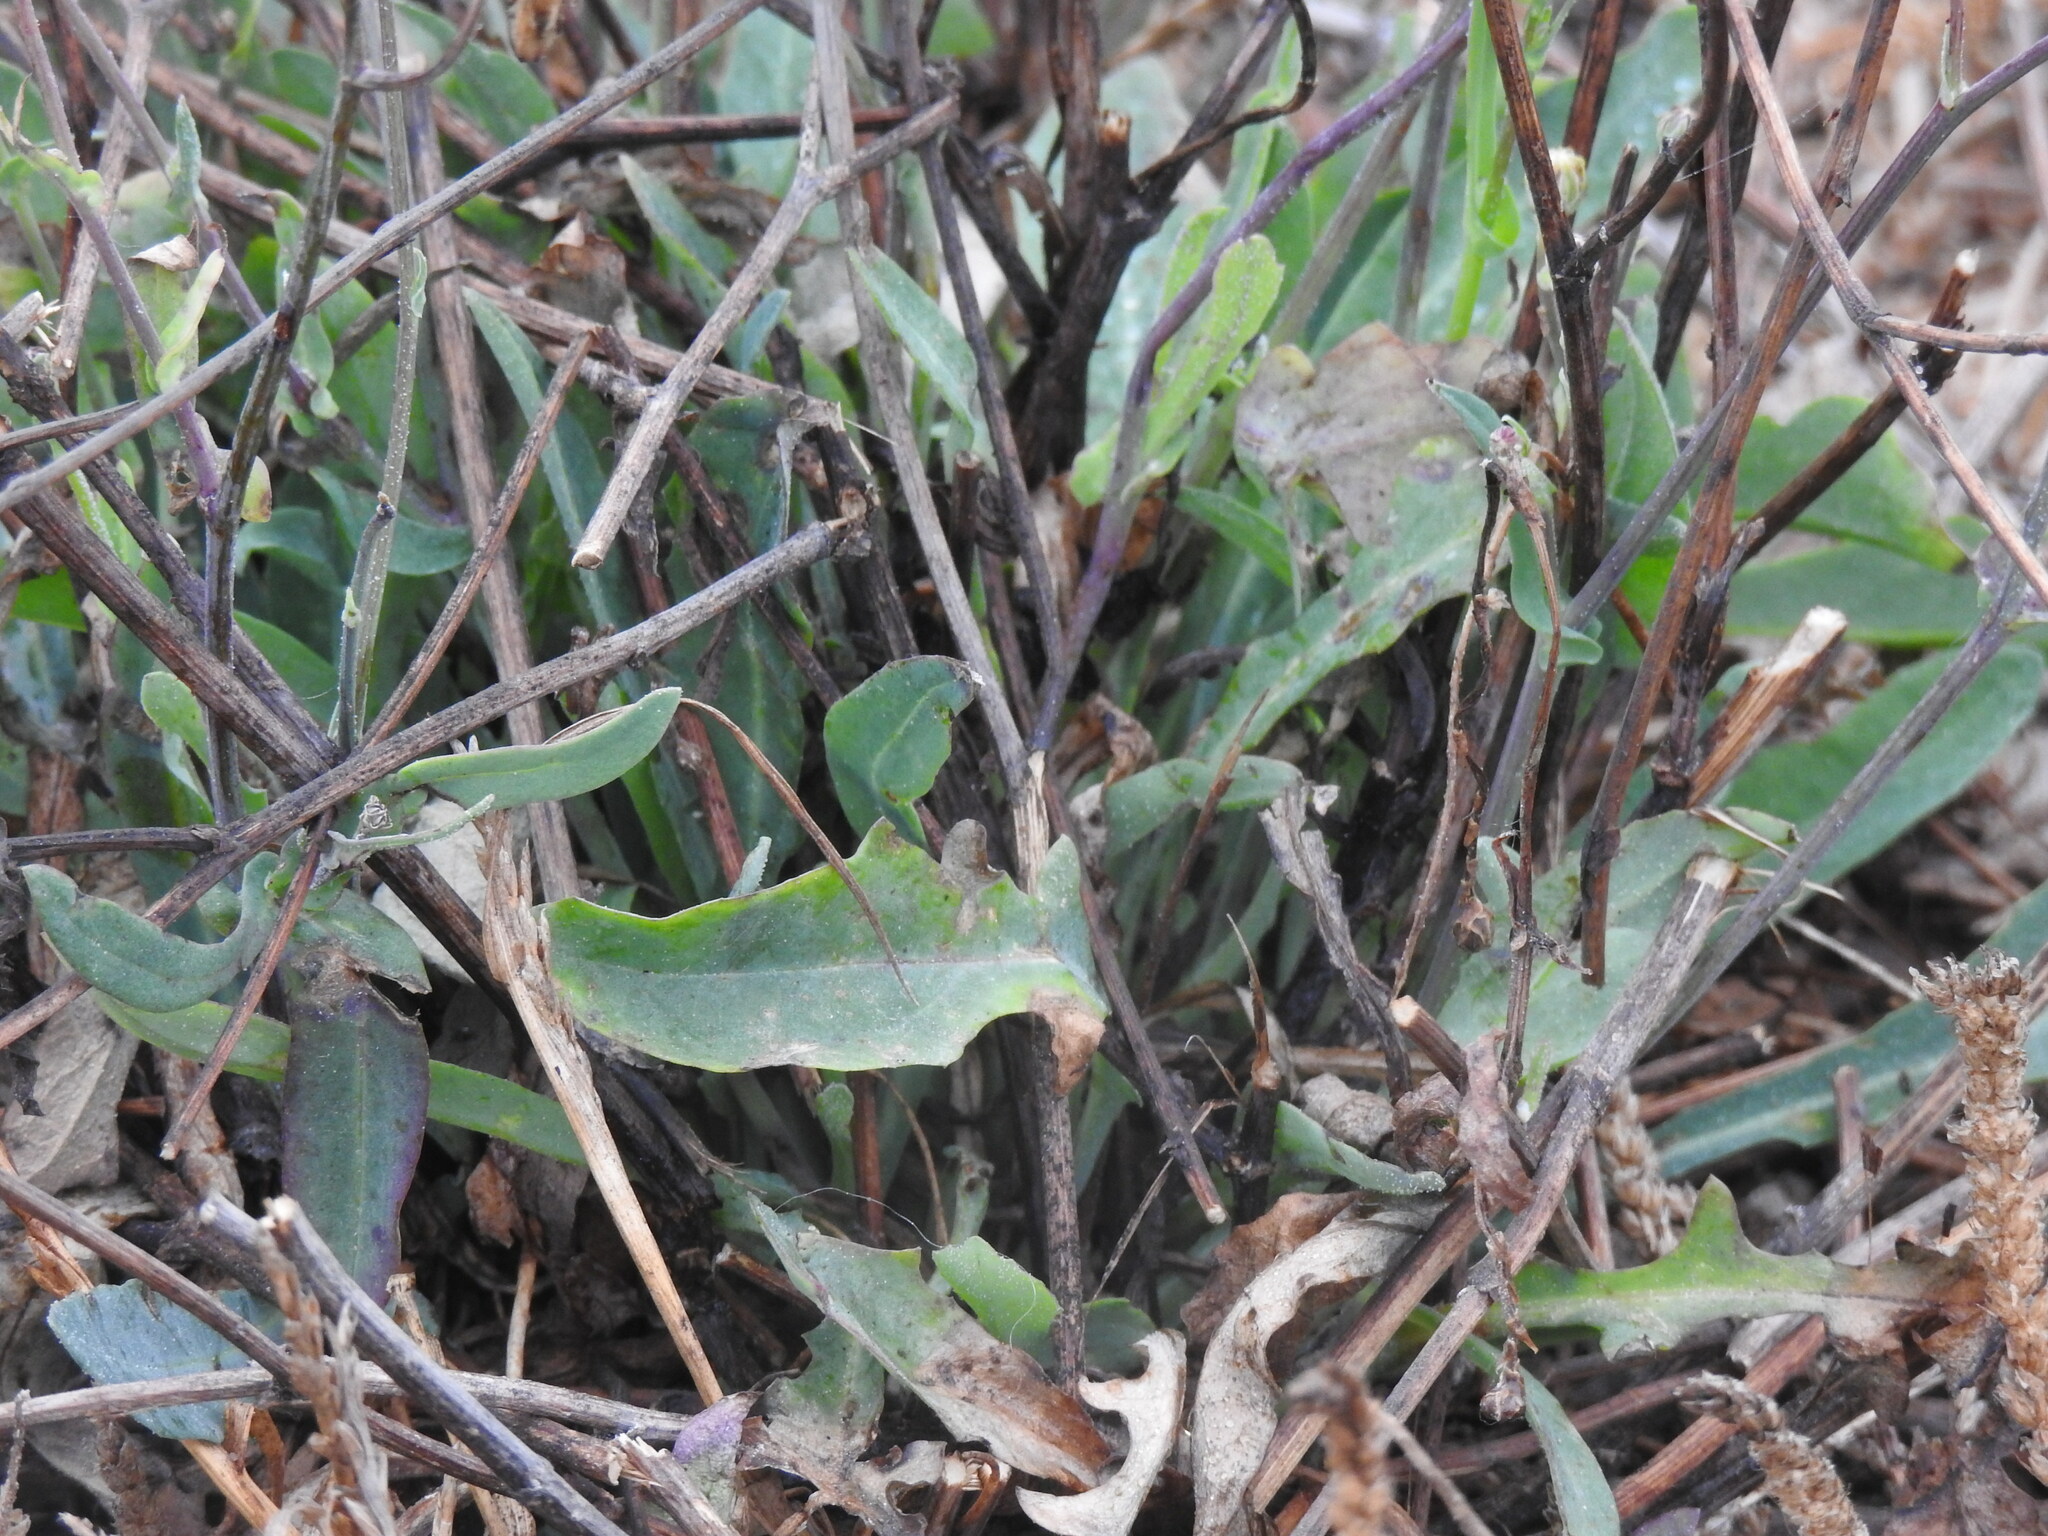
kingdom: Plantae
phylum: Tracheophyta
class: Magnoliopsida
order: Asterales
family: Asteraceae
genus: Reichardia
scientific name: Reichardia picroides
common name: Common brighteyes
